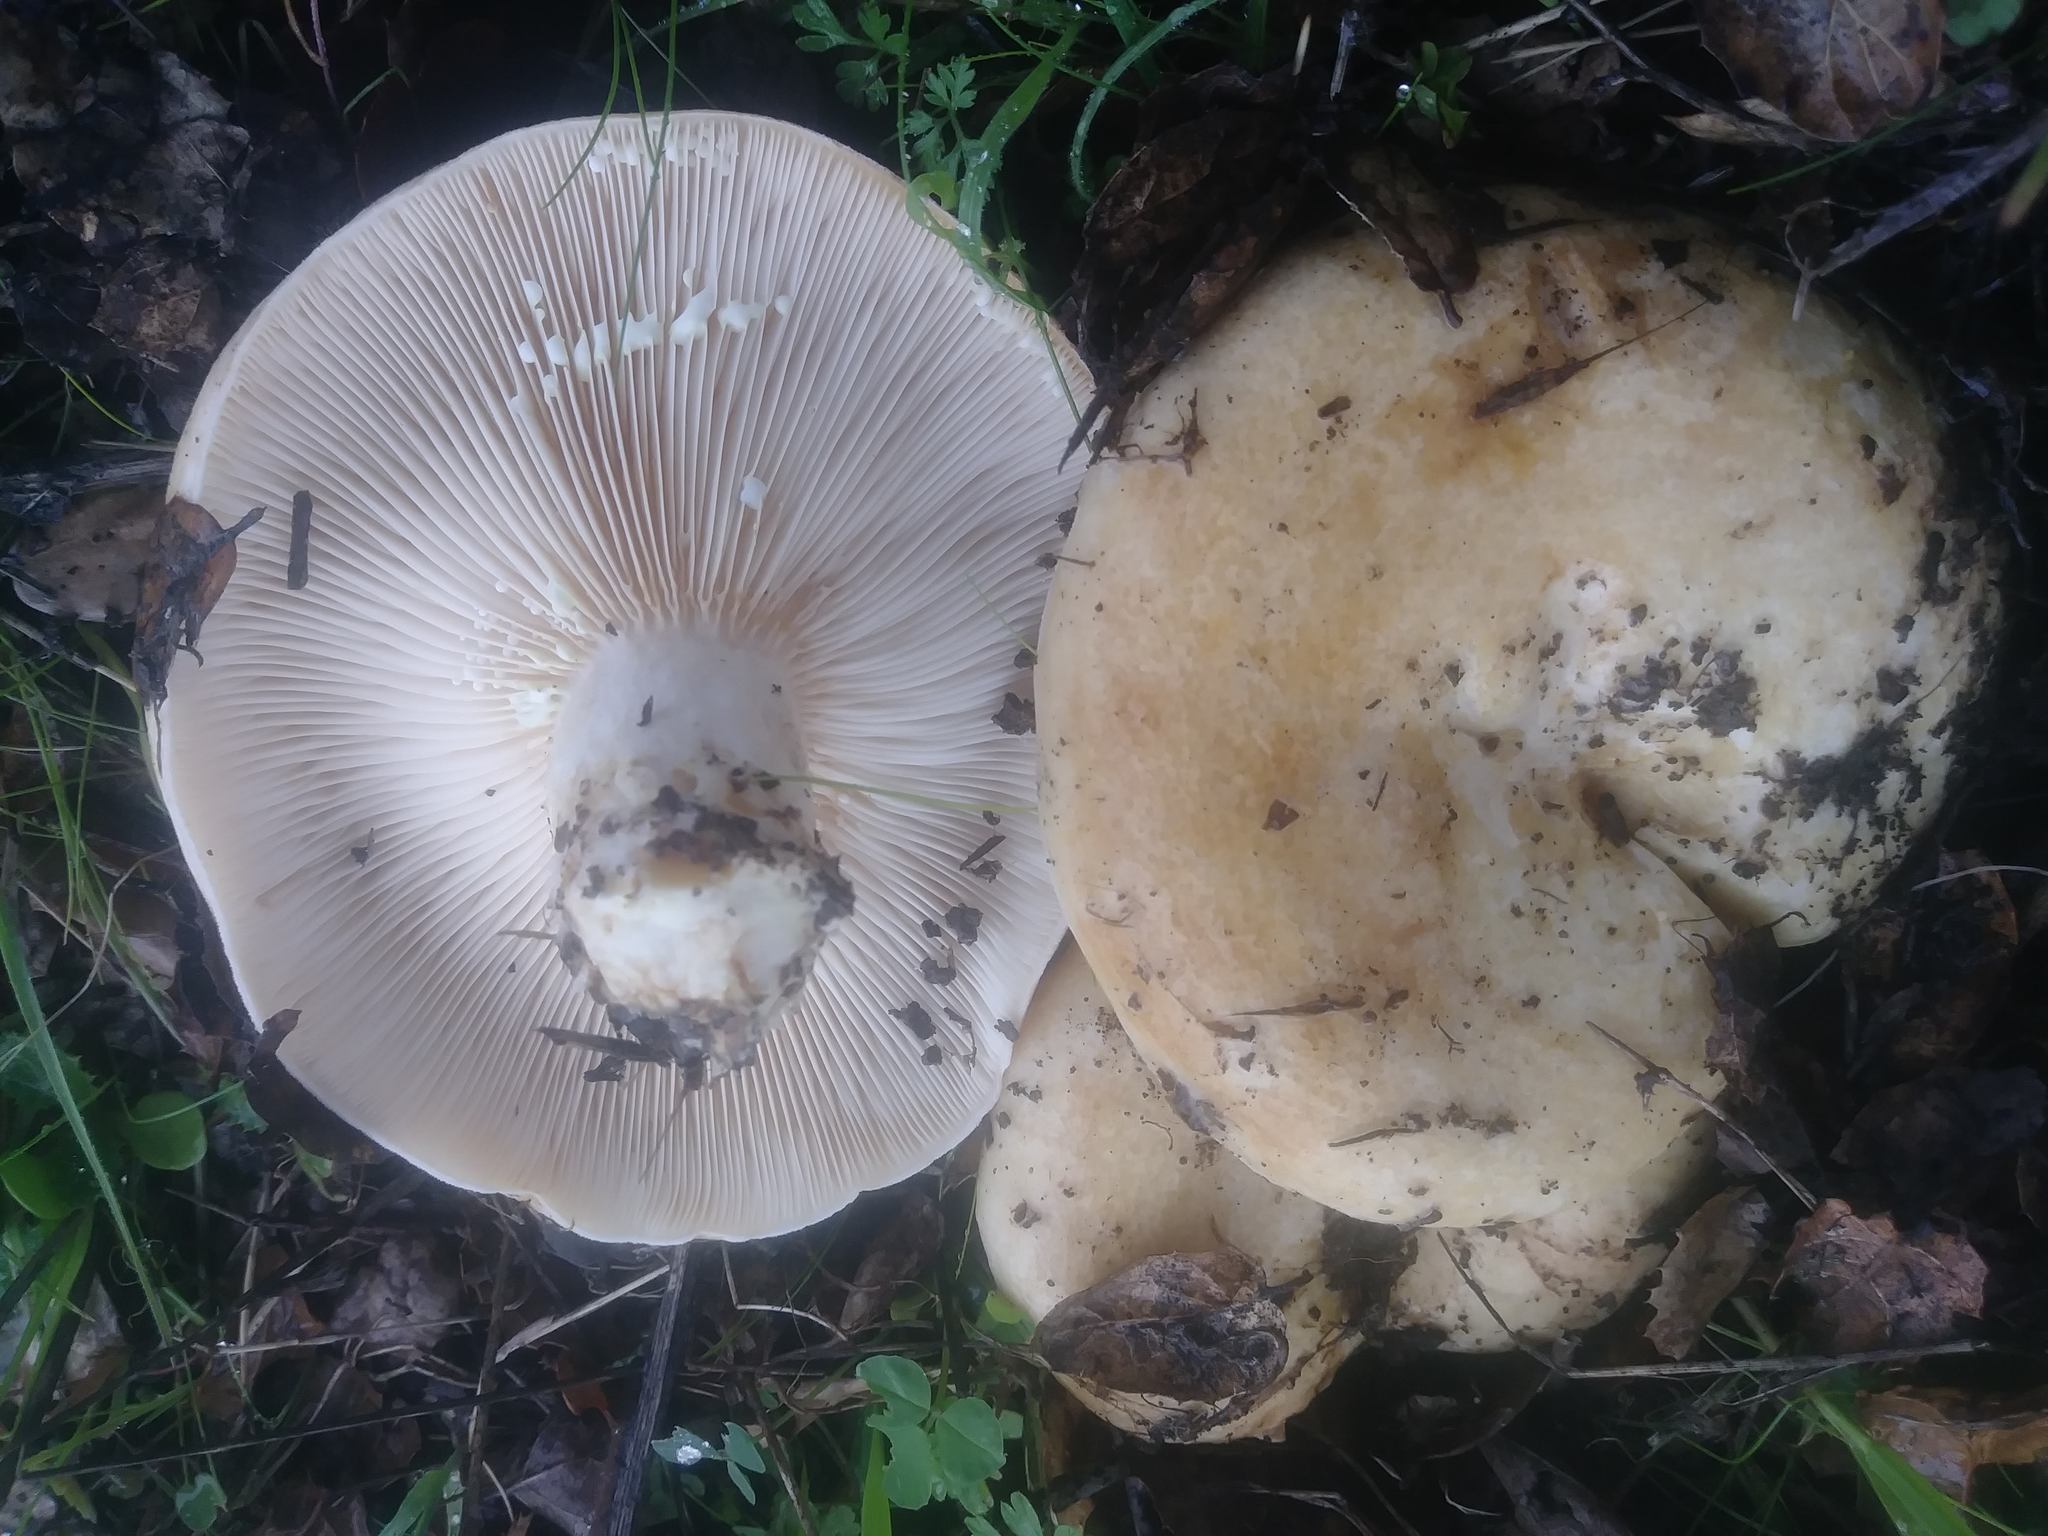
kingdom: Fungi
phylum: Basidiomycota
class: Agaricomycetes
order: Russulales
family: Russulaceae
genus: Lactarius
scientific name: Lactarius alnicola
